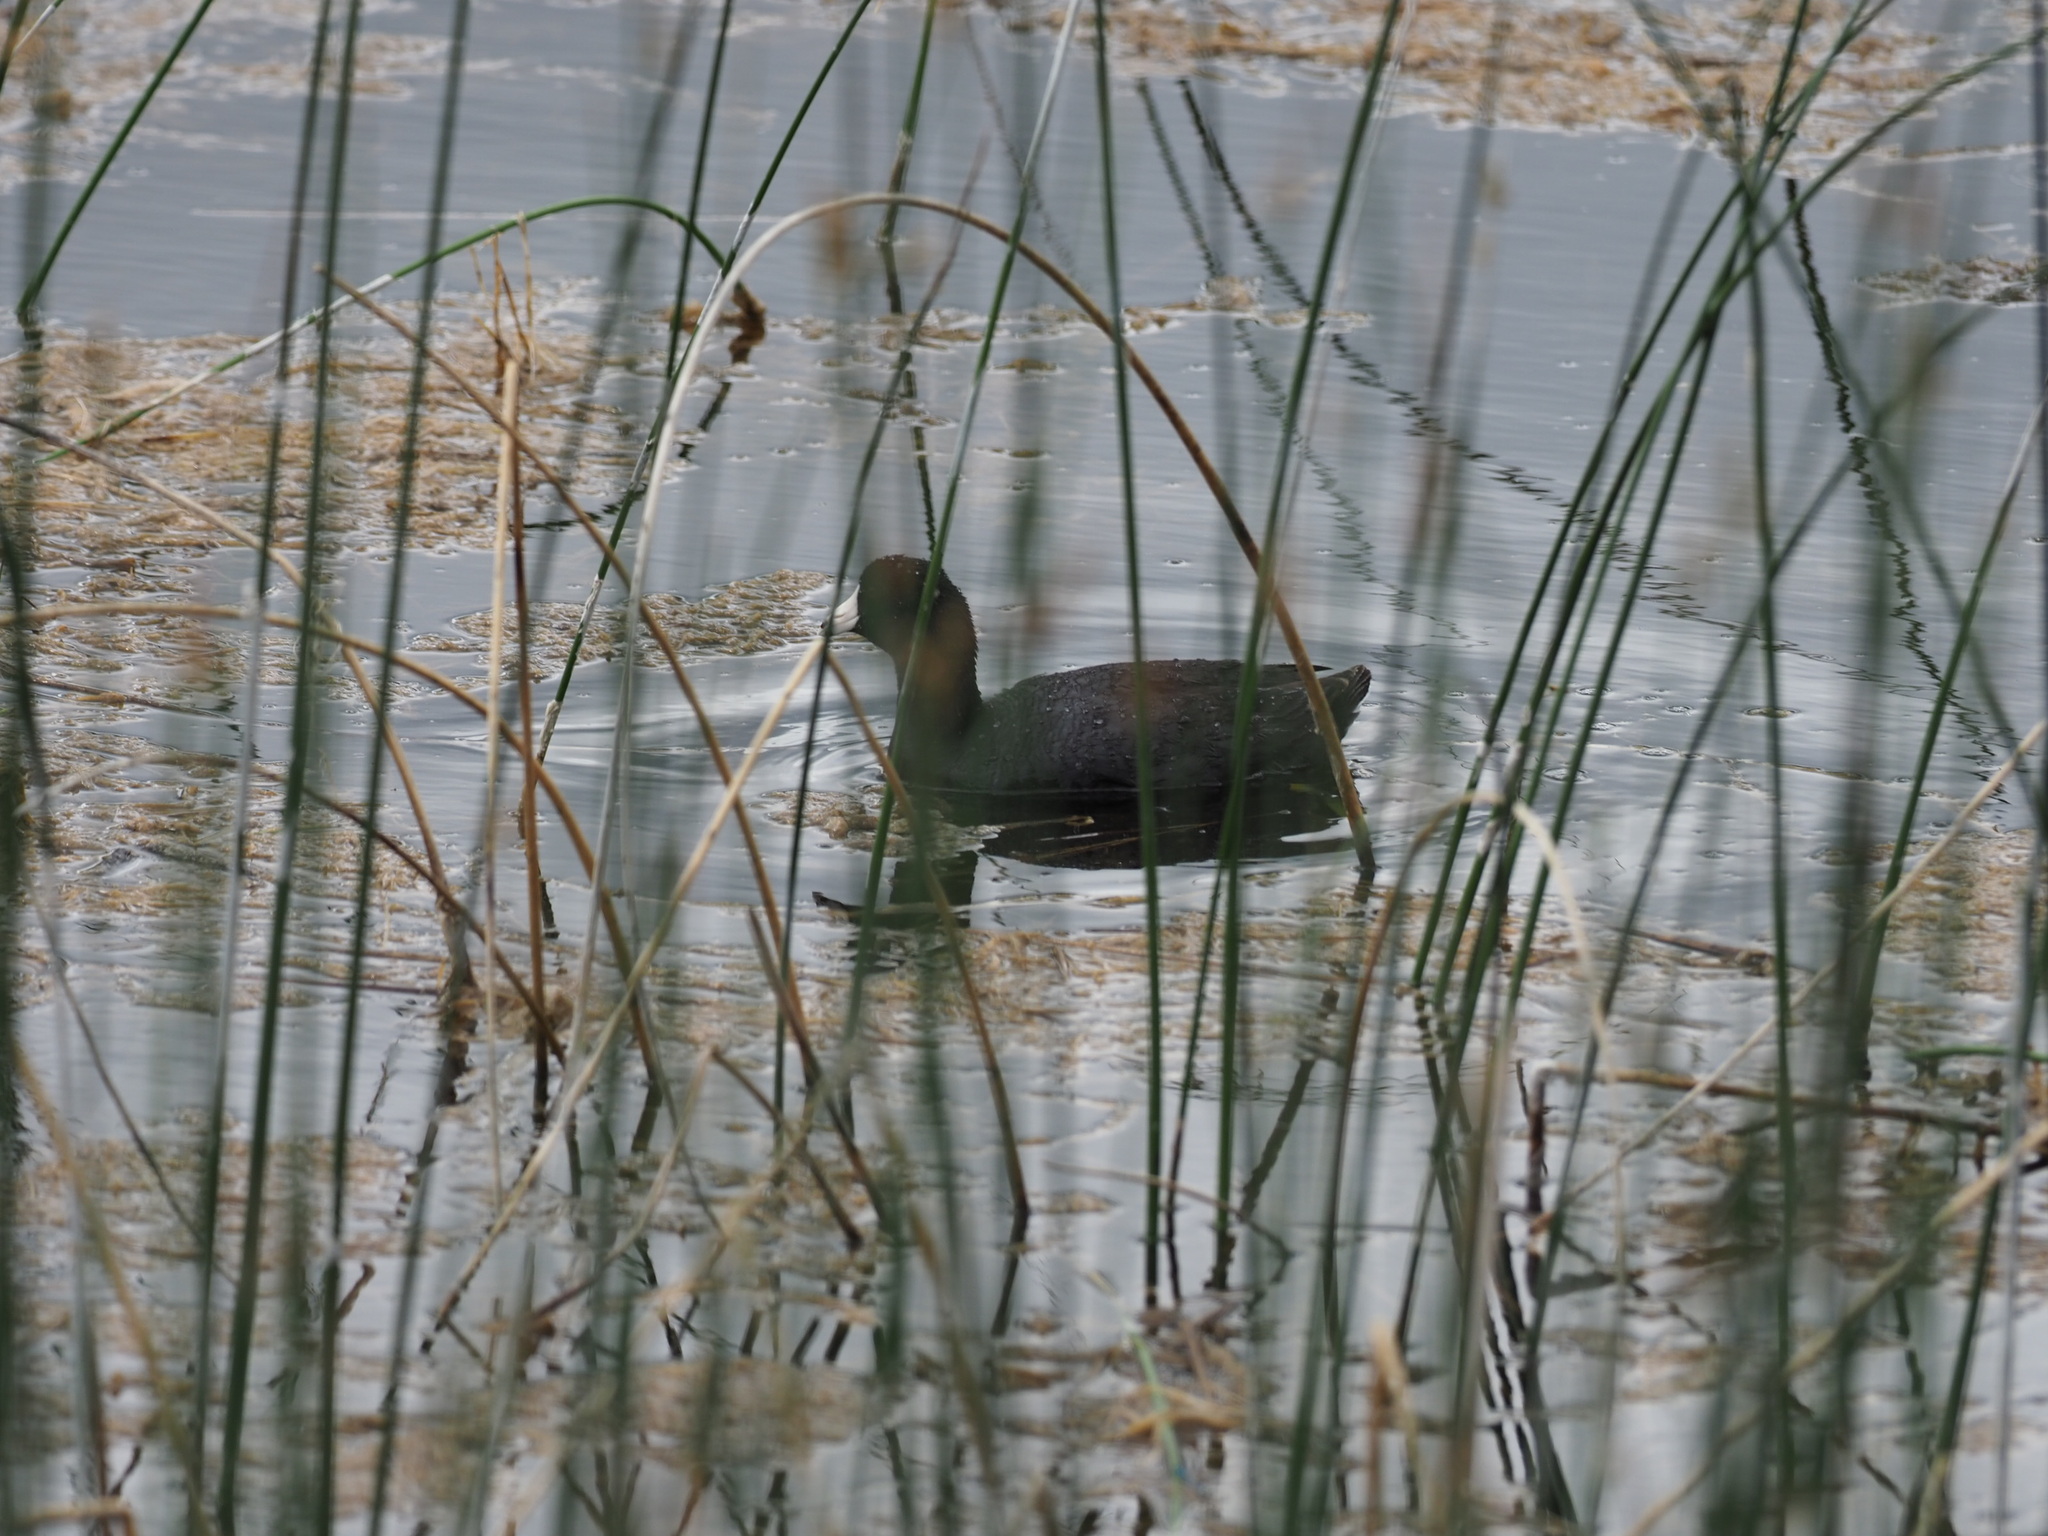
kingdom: Animalia
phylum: Chordata
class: Aves
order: Gruiformes
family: Rallidae
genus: Fulica
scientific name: Fulica americana
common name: American coot
